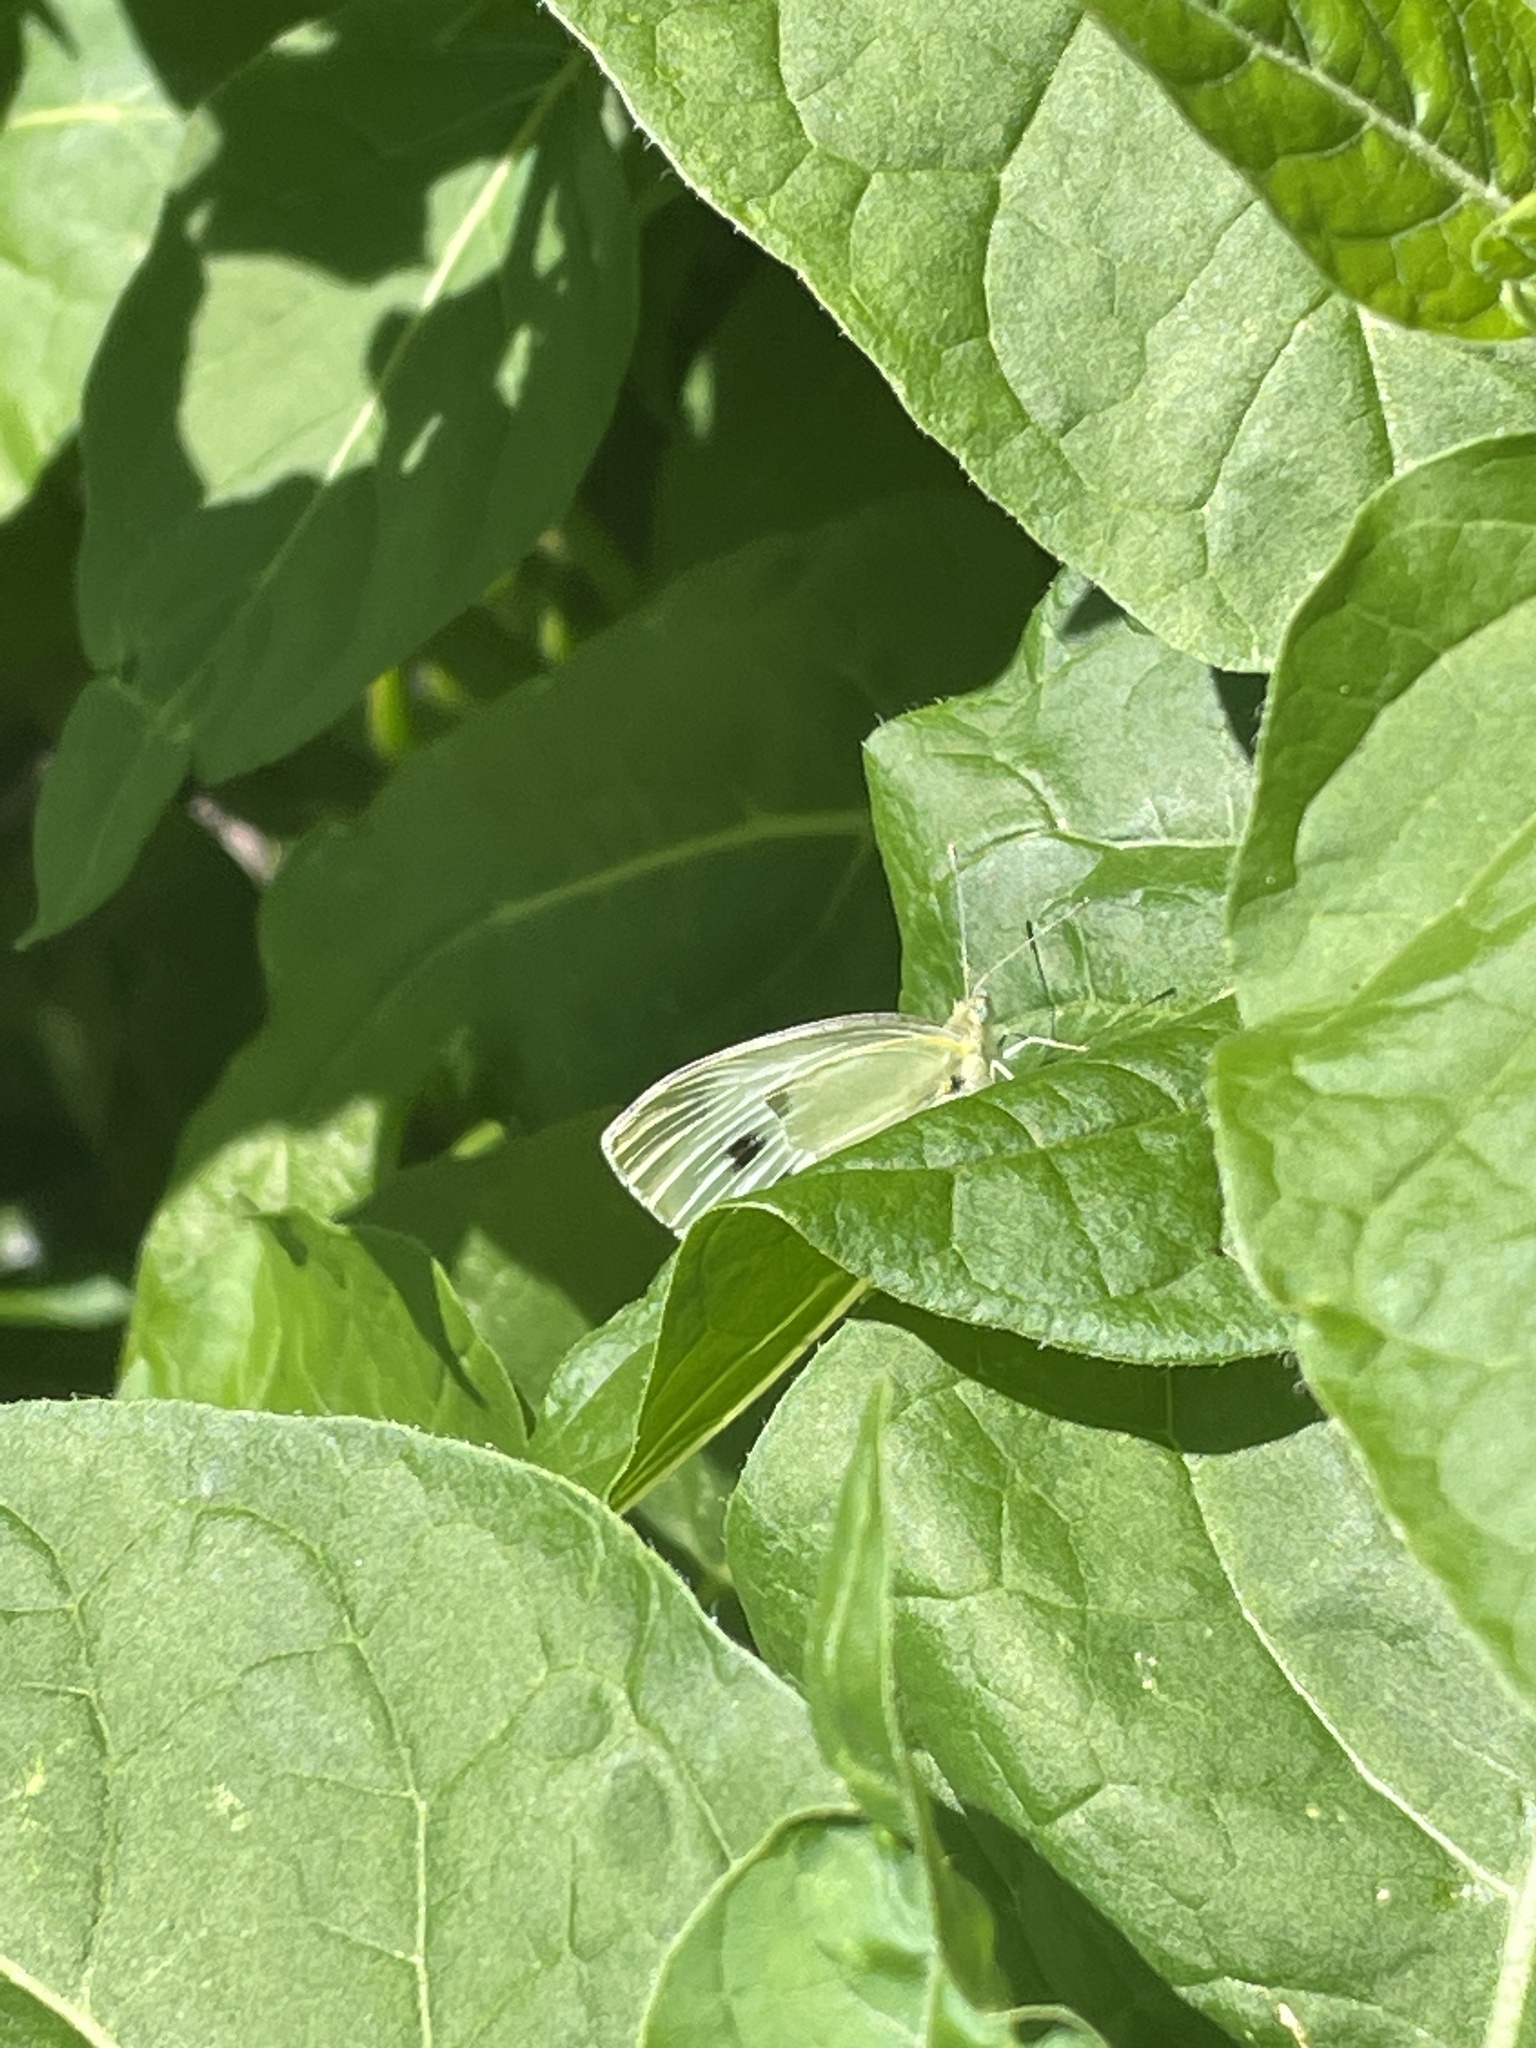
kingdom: Animalia
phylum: Arthropoda
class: Insecta
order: Lepidoptera
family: Pieridae
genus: Pieris
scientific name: Pieris rapae
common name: Small white
